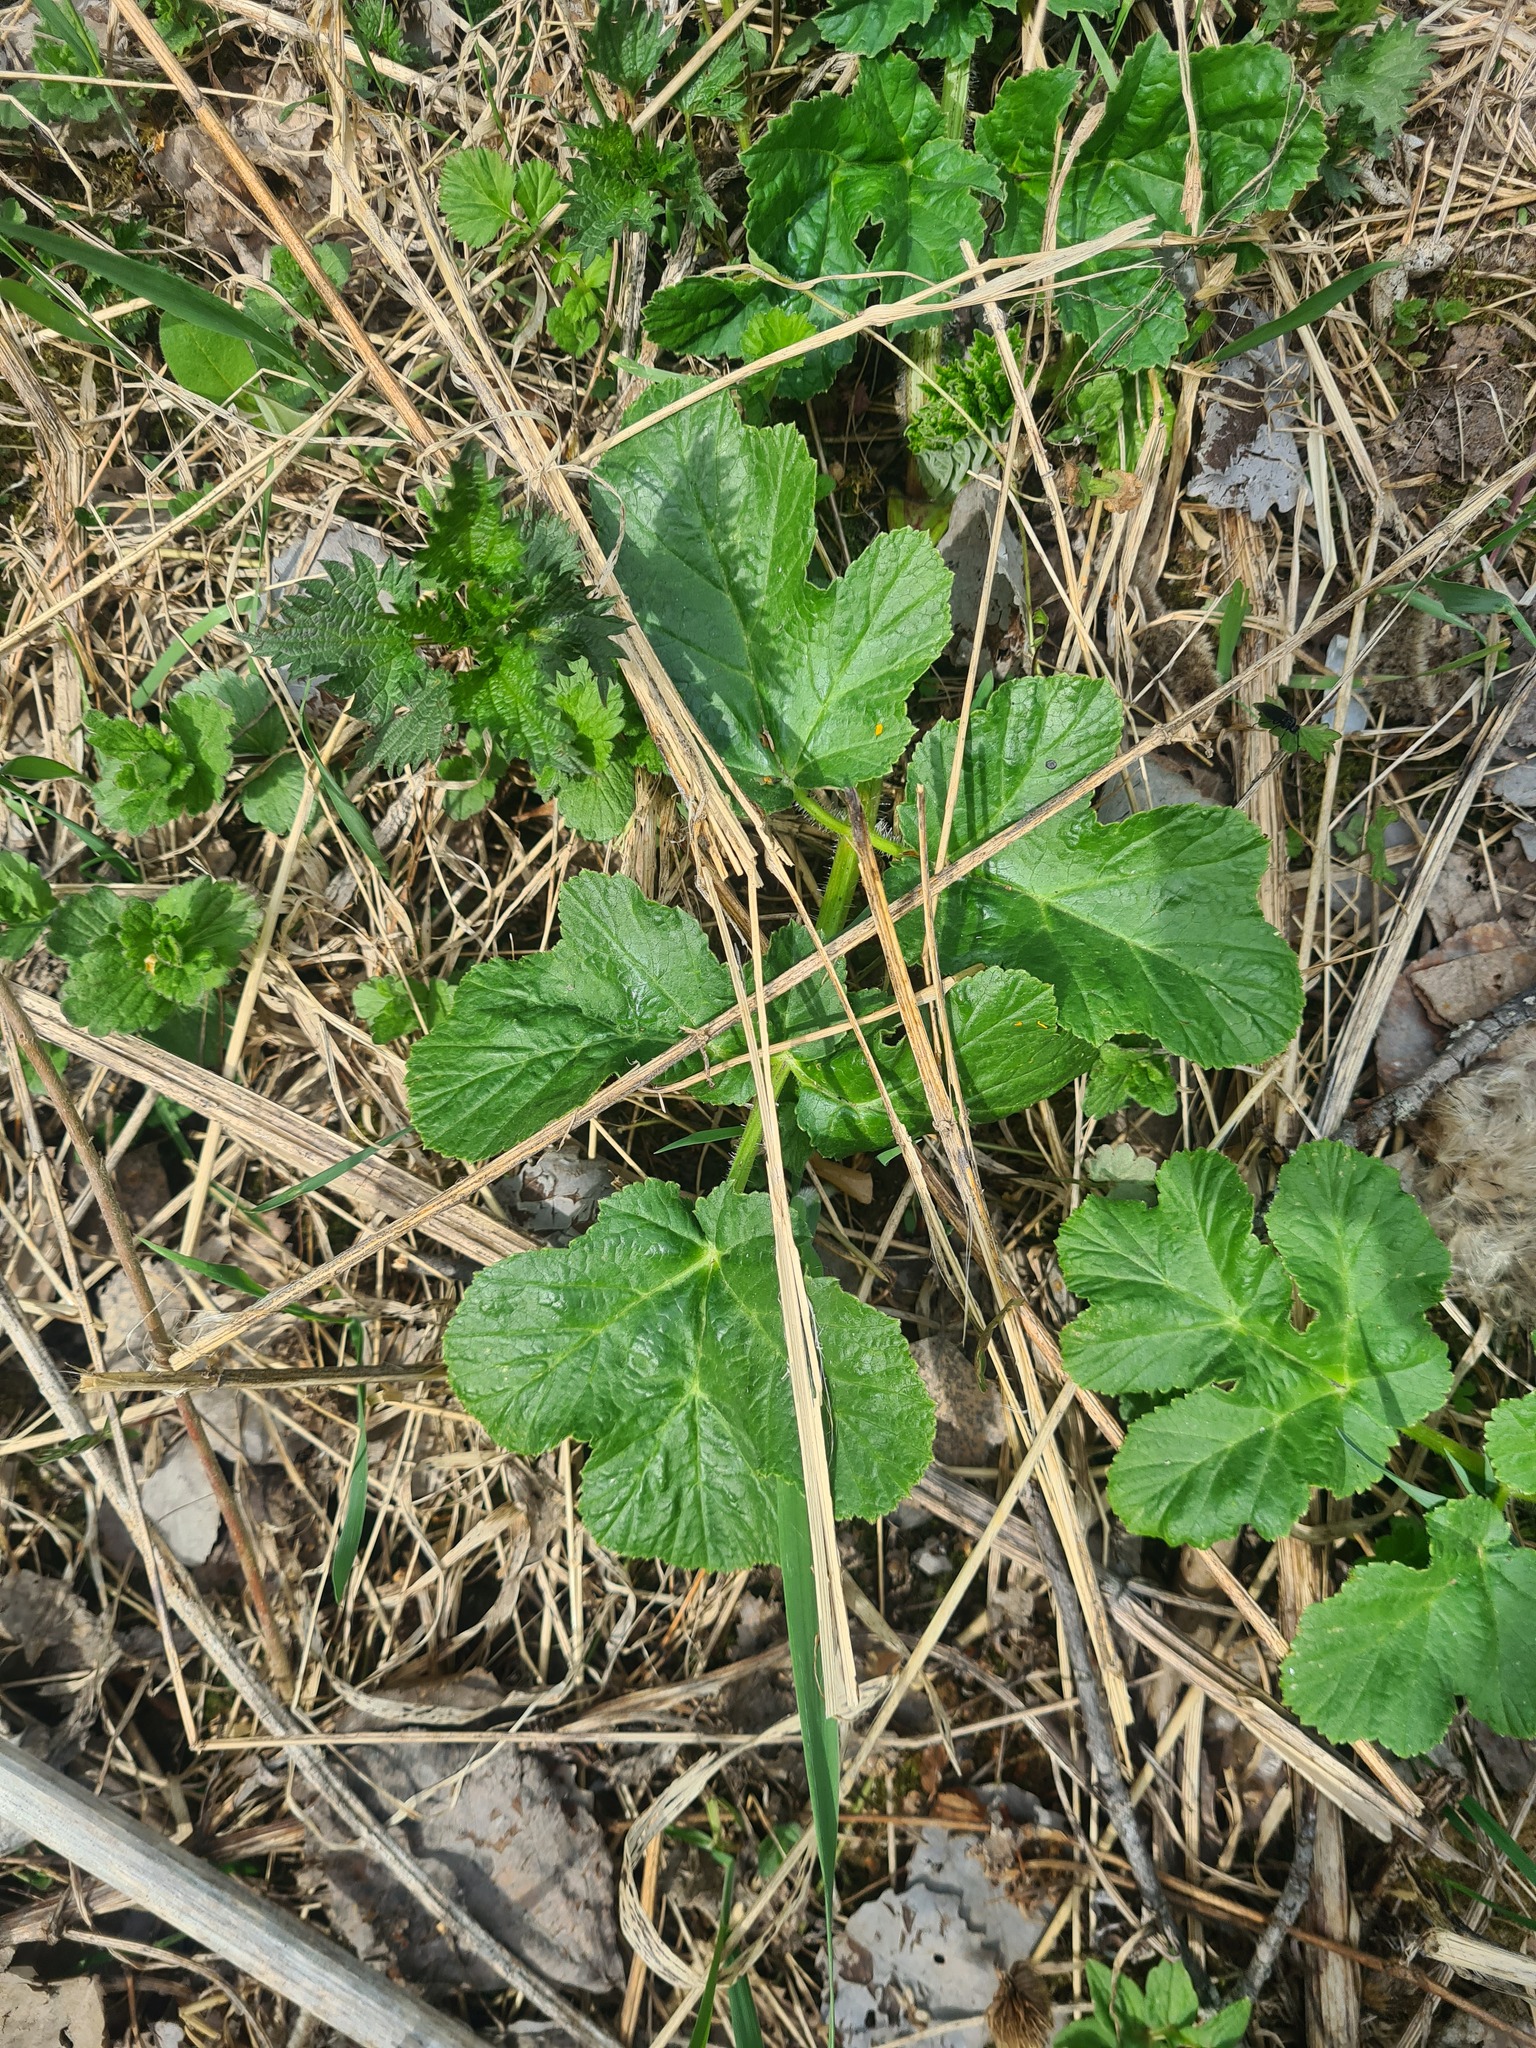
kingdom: Plantae
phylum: Tracheophyta
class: Magnoliopsida
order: Apiales
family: Apiaceae
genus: Heracleum
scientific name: Heracleum sphondylium
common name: Hogweed
